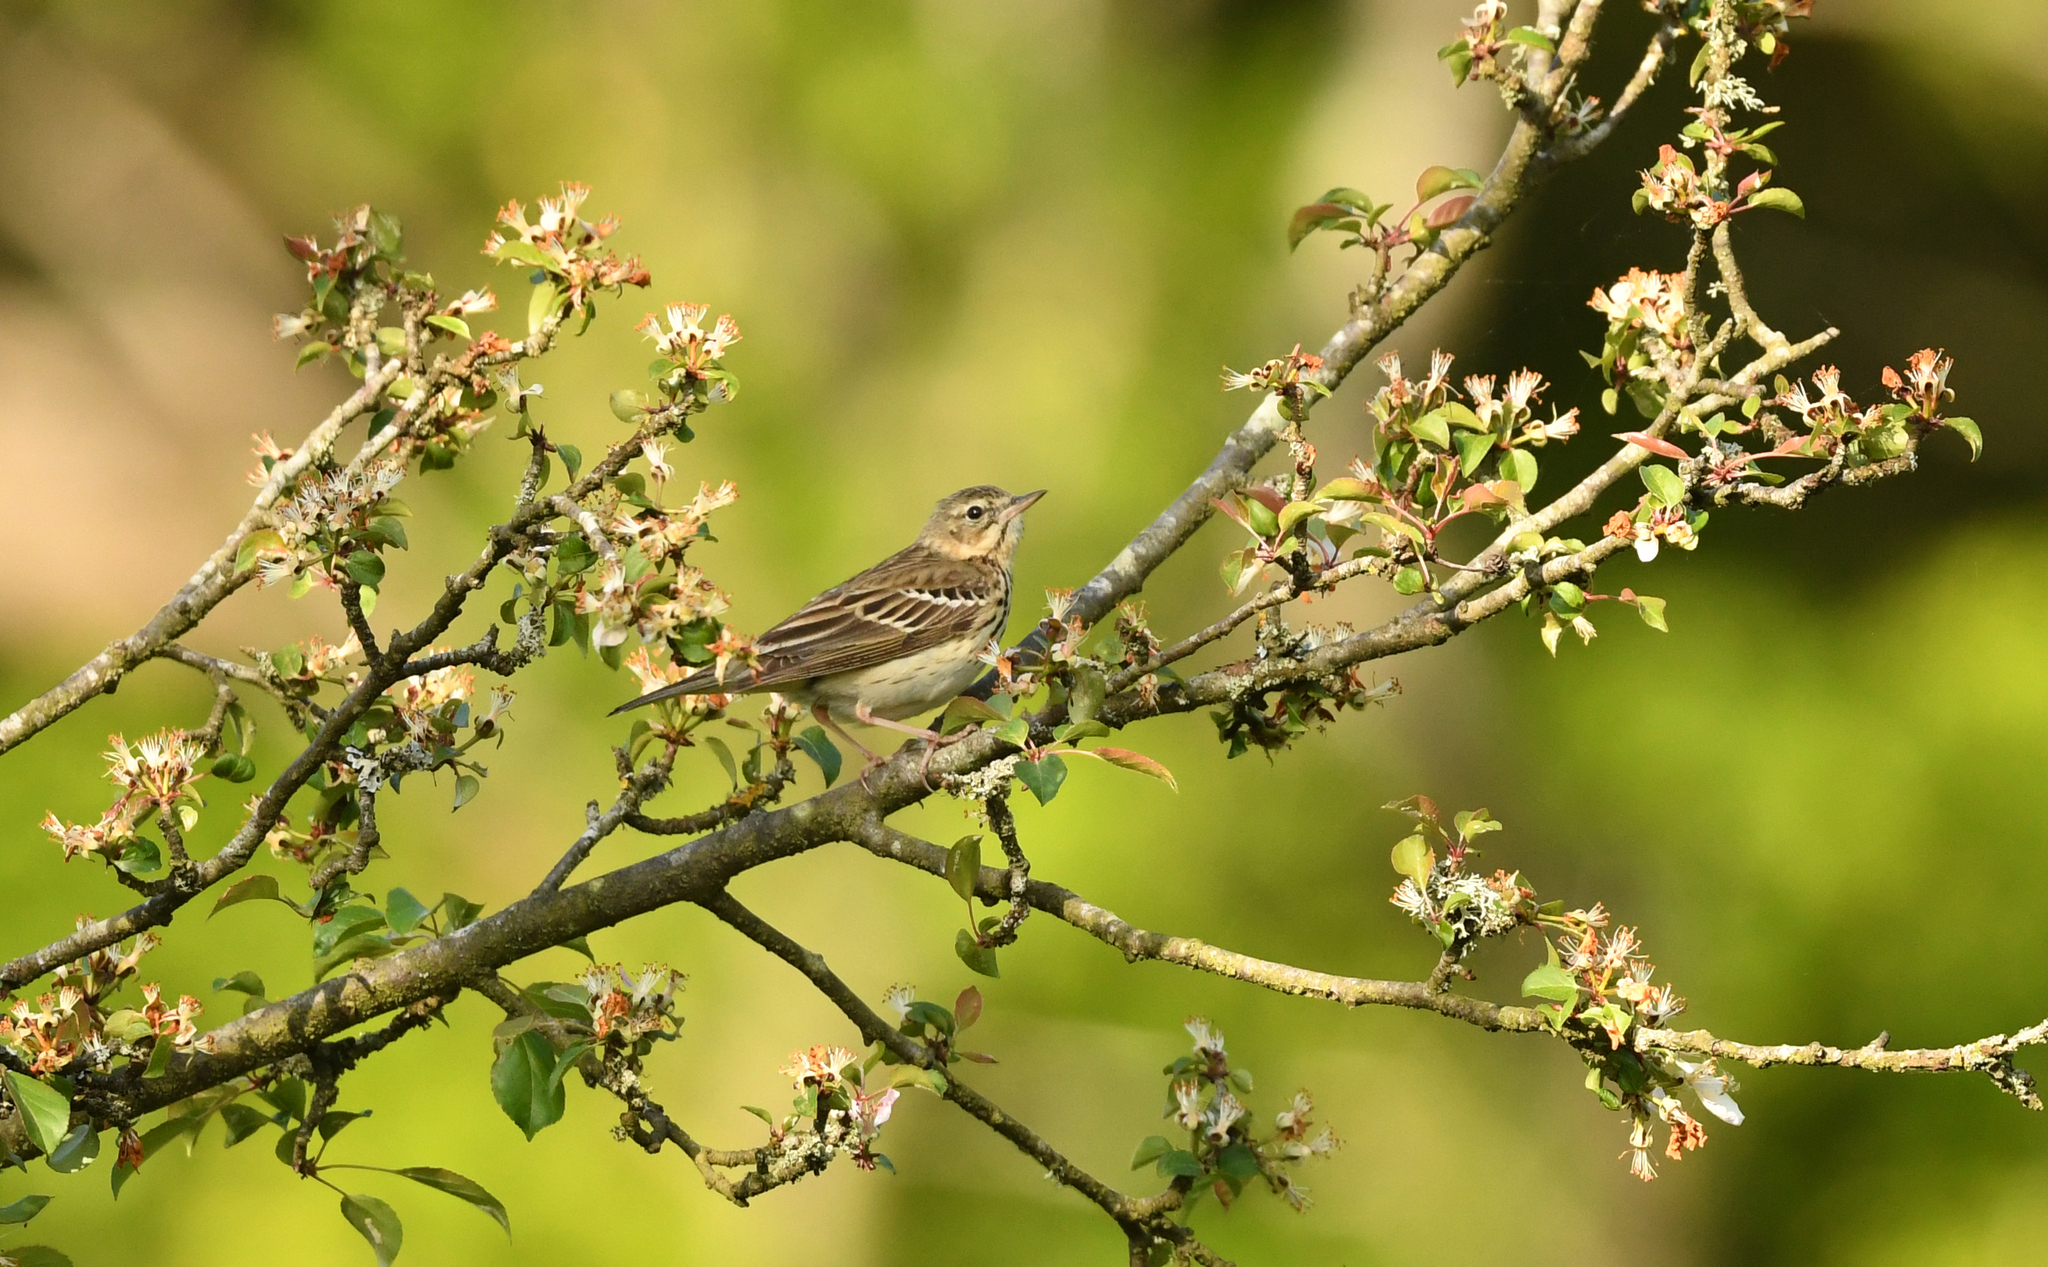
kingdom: Animalia
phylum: Chordata
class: Aves
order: Passeriformes
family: Motacillidae
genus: Anthus
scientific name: Anthus trivialis
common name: Tree pipit
